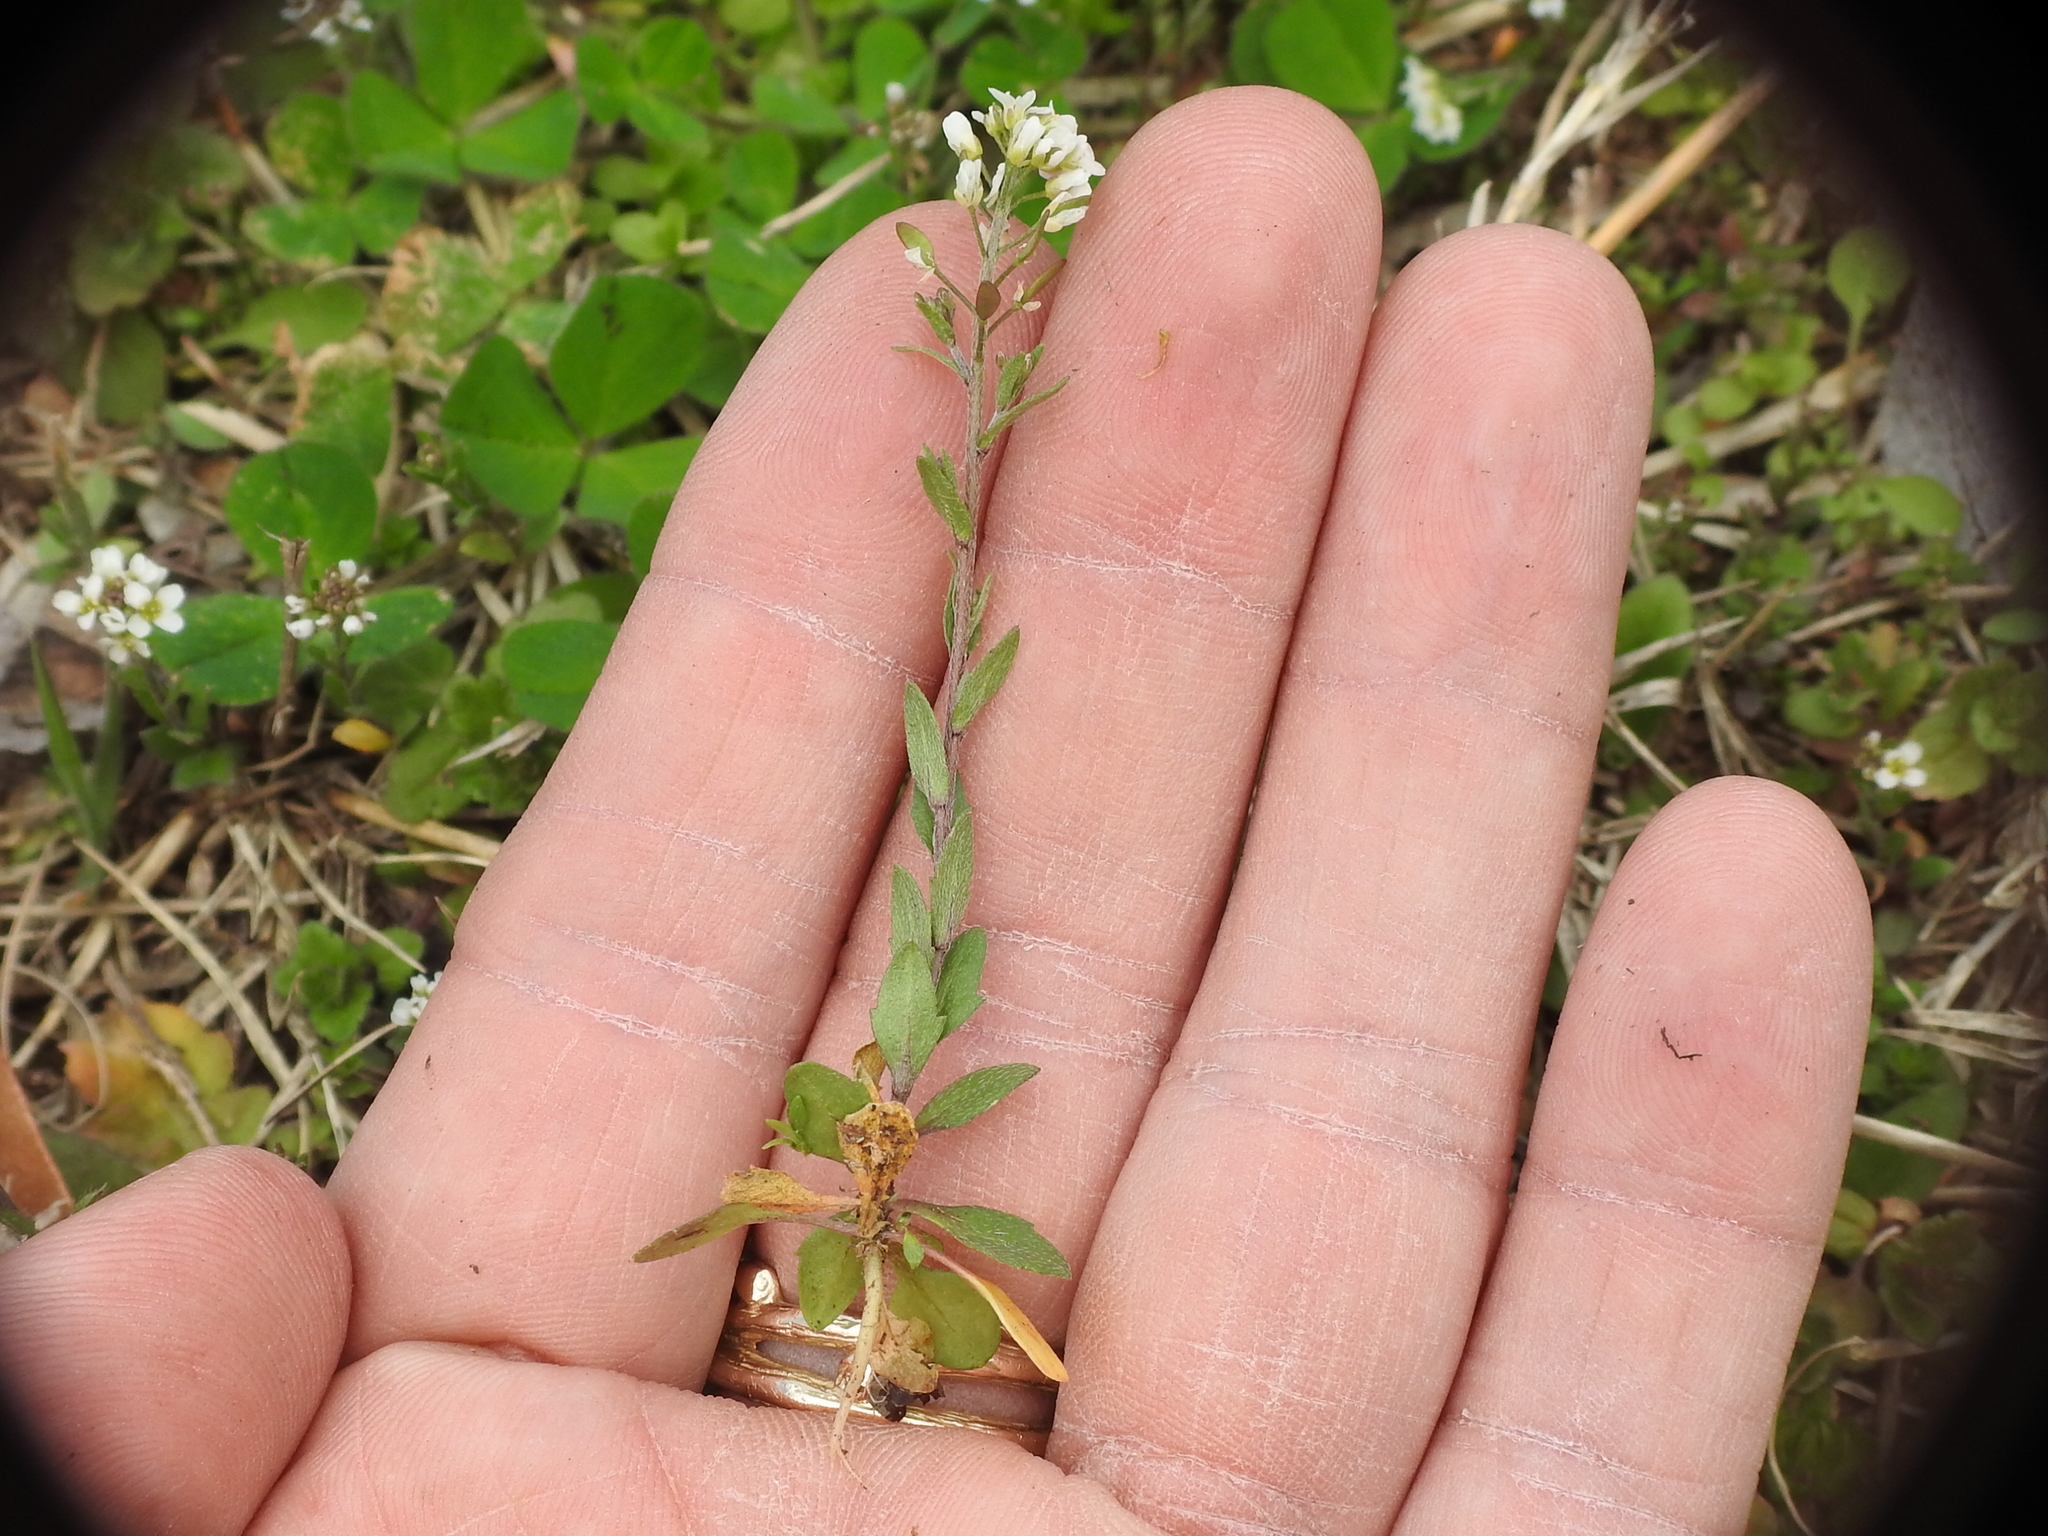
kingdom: Plantae
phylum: Tracheophyta
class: Magnoliopsida
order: Brassicales
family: Brassicaceae
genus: Abdra
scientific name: Abdra brachycarpa
